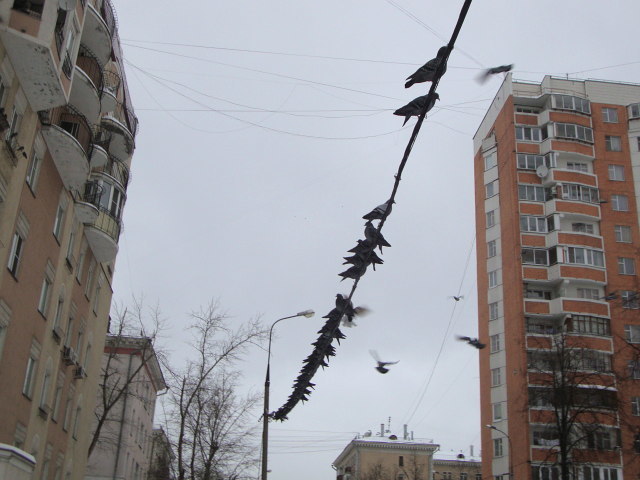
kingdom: Animalia
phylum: Chordata
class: Aves
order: Columbiformes
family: Columbidae
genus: Columba
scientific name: Columba livia
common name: Rock pigeon
